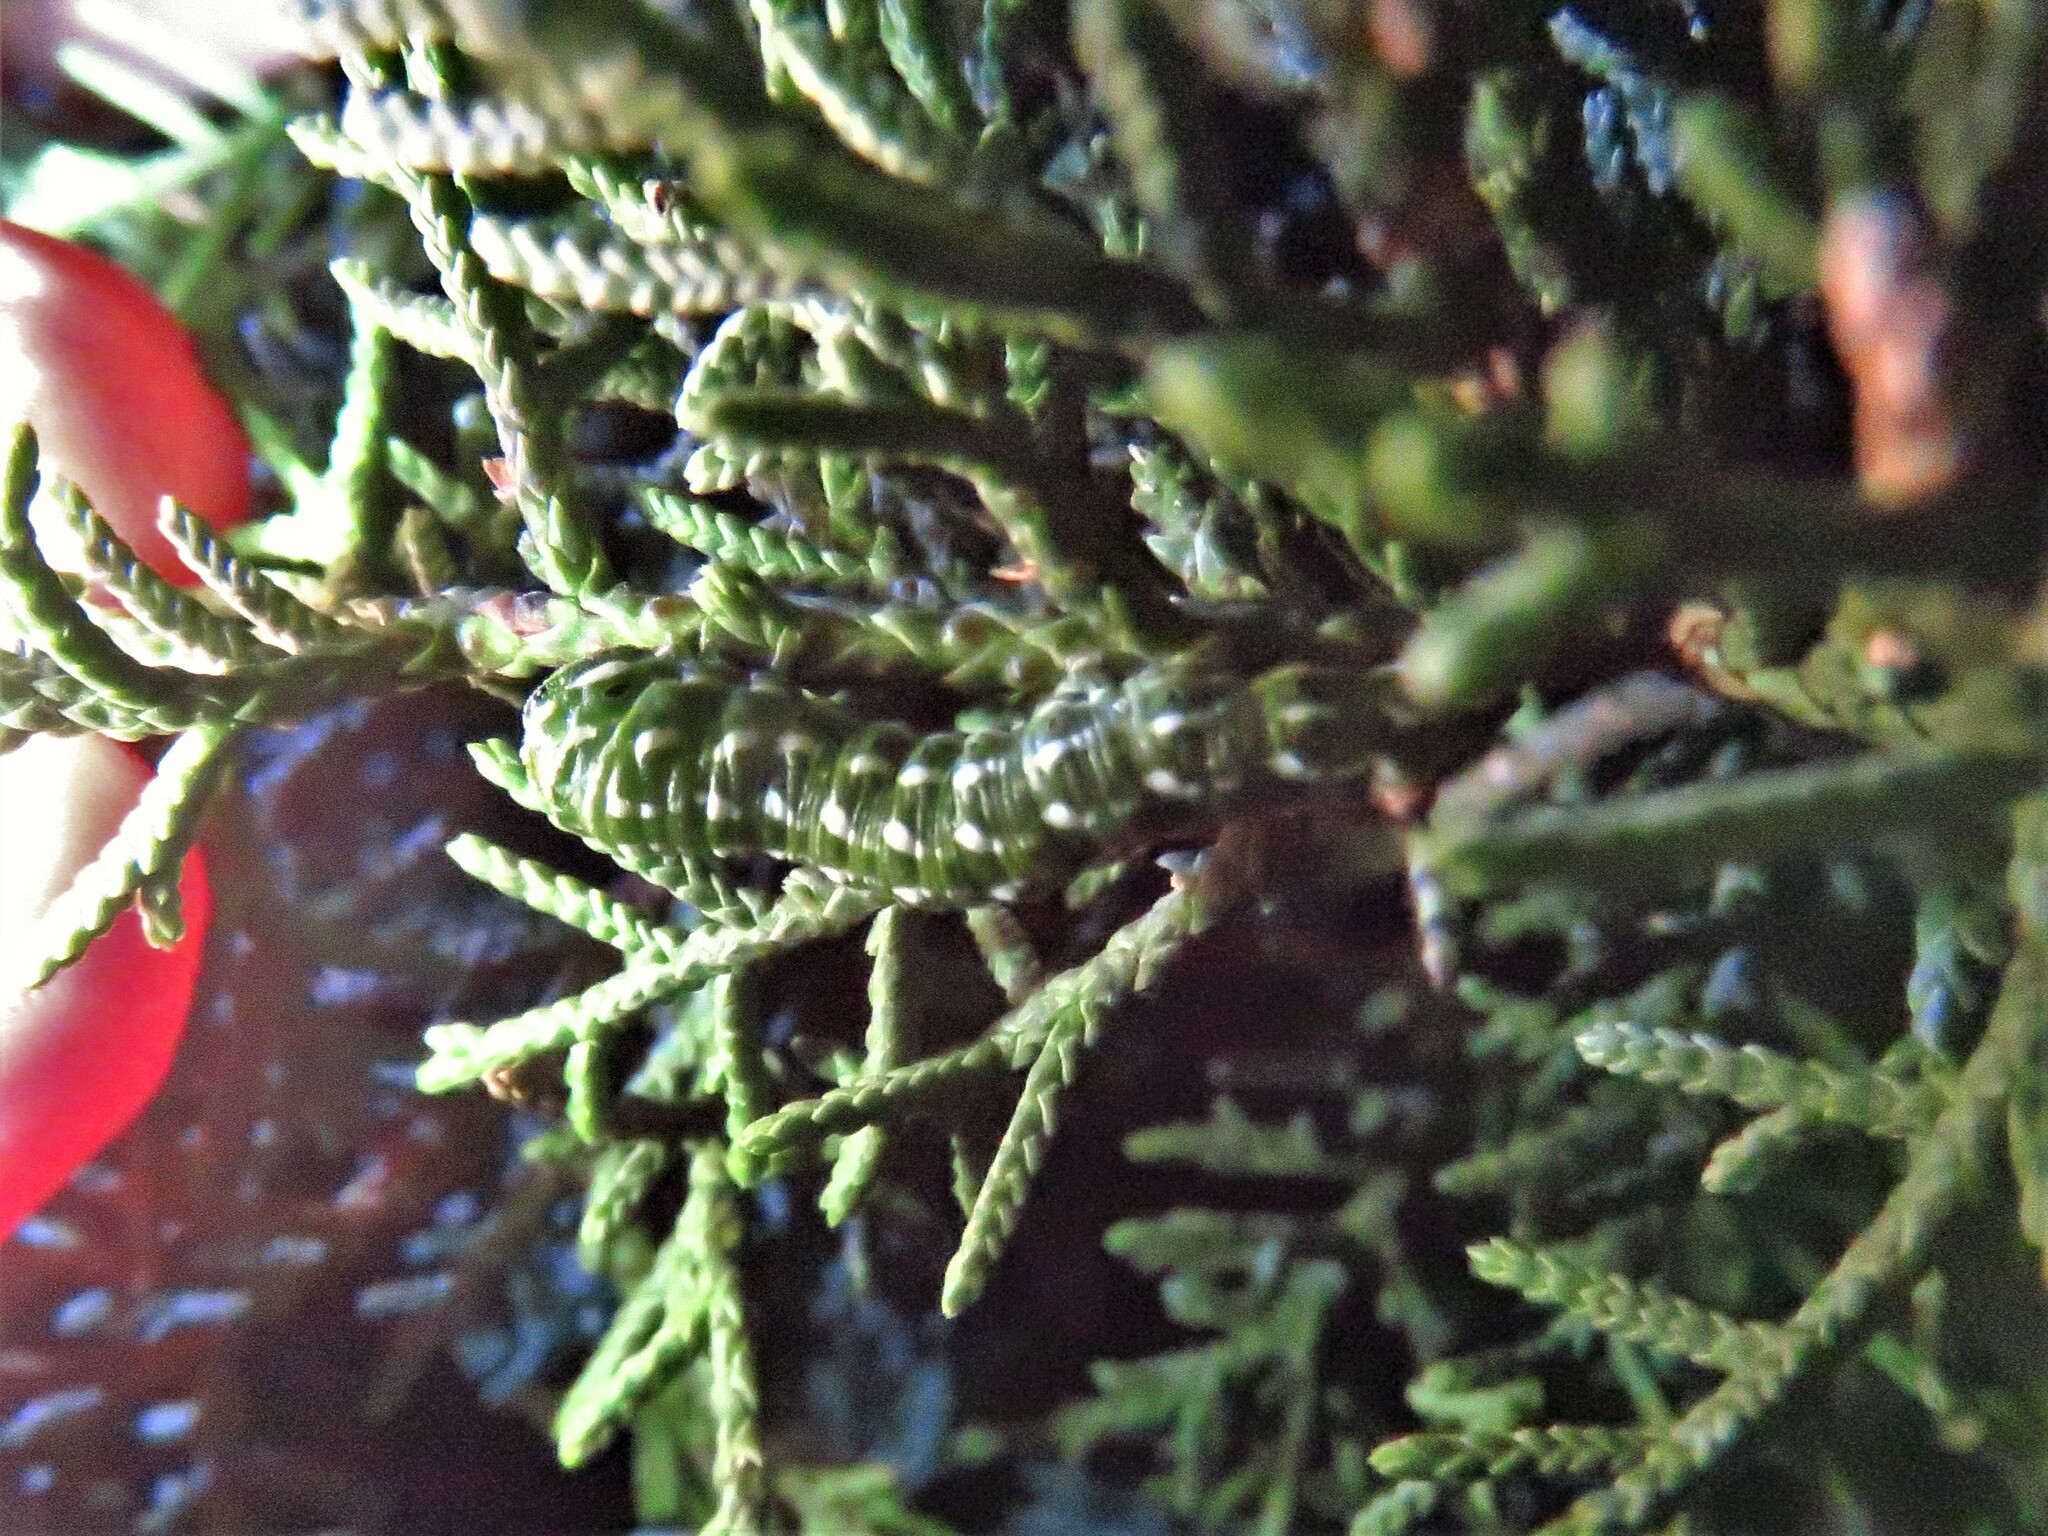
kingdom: Animalia
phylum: Arthropoda
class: Insecta
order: Lepidoptera
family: Sphingidae
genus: Sphinx
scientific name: Sphinx vanbuskirki
